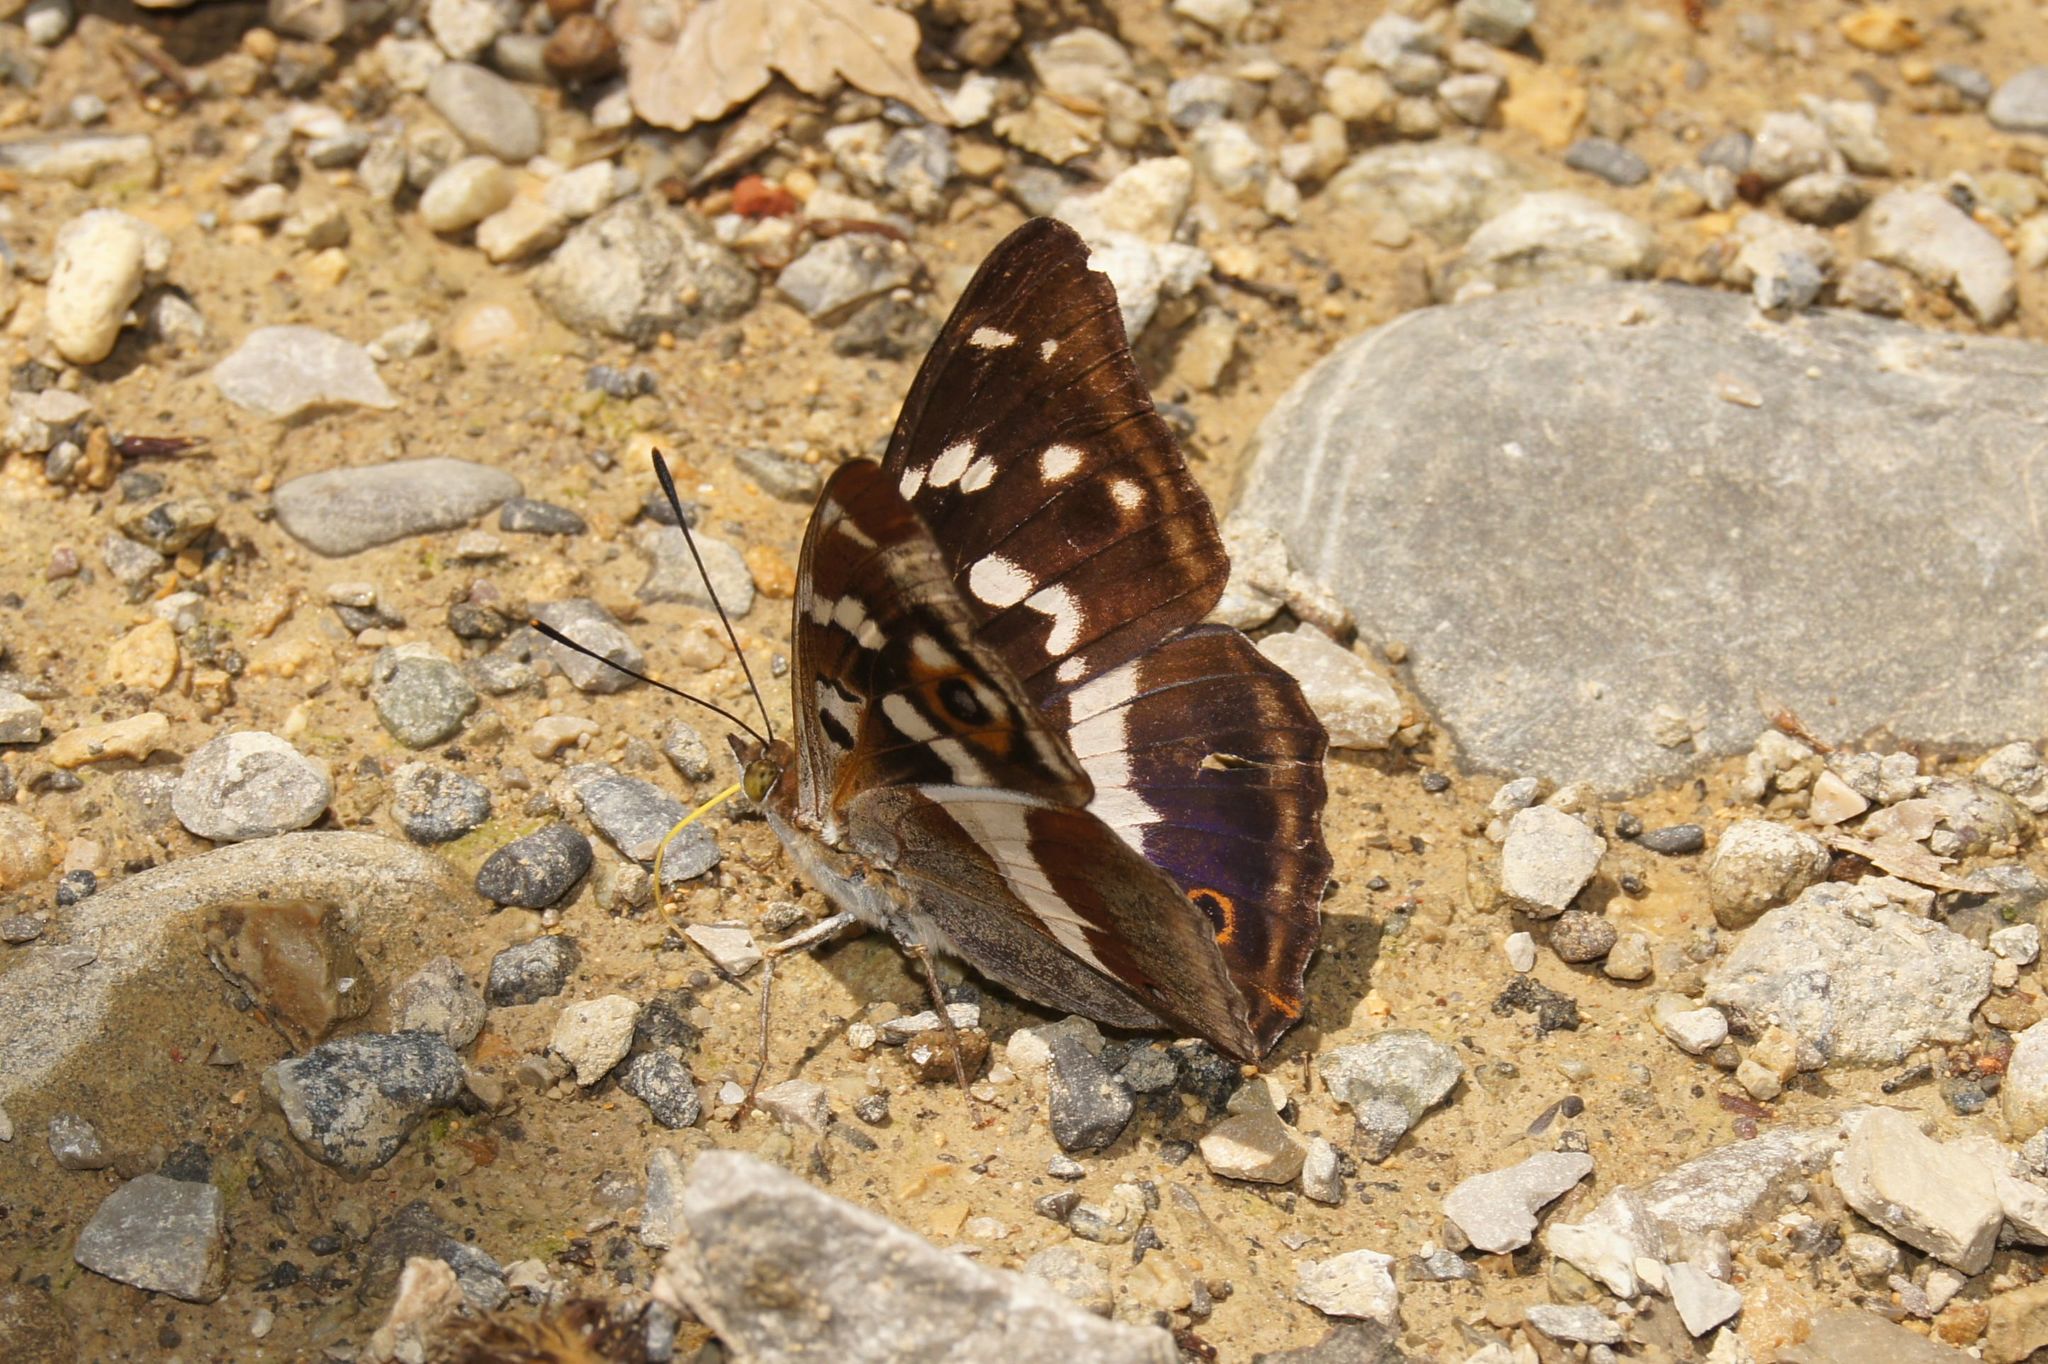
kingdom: Animalia
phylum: Arthropoda
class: Insecta
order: Lepidoptera
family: Nymphalidae
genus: Apatura
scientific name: Apatura iris
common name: Purple emperor
